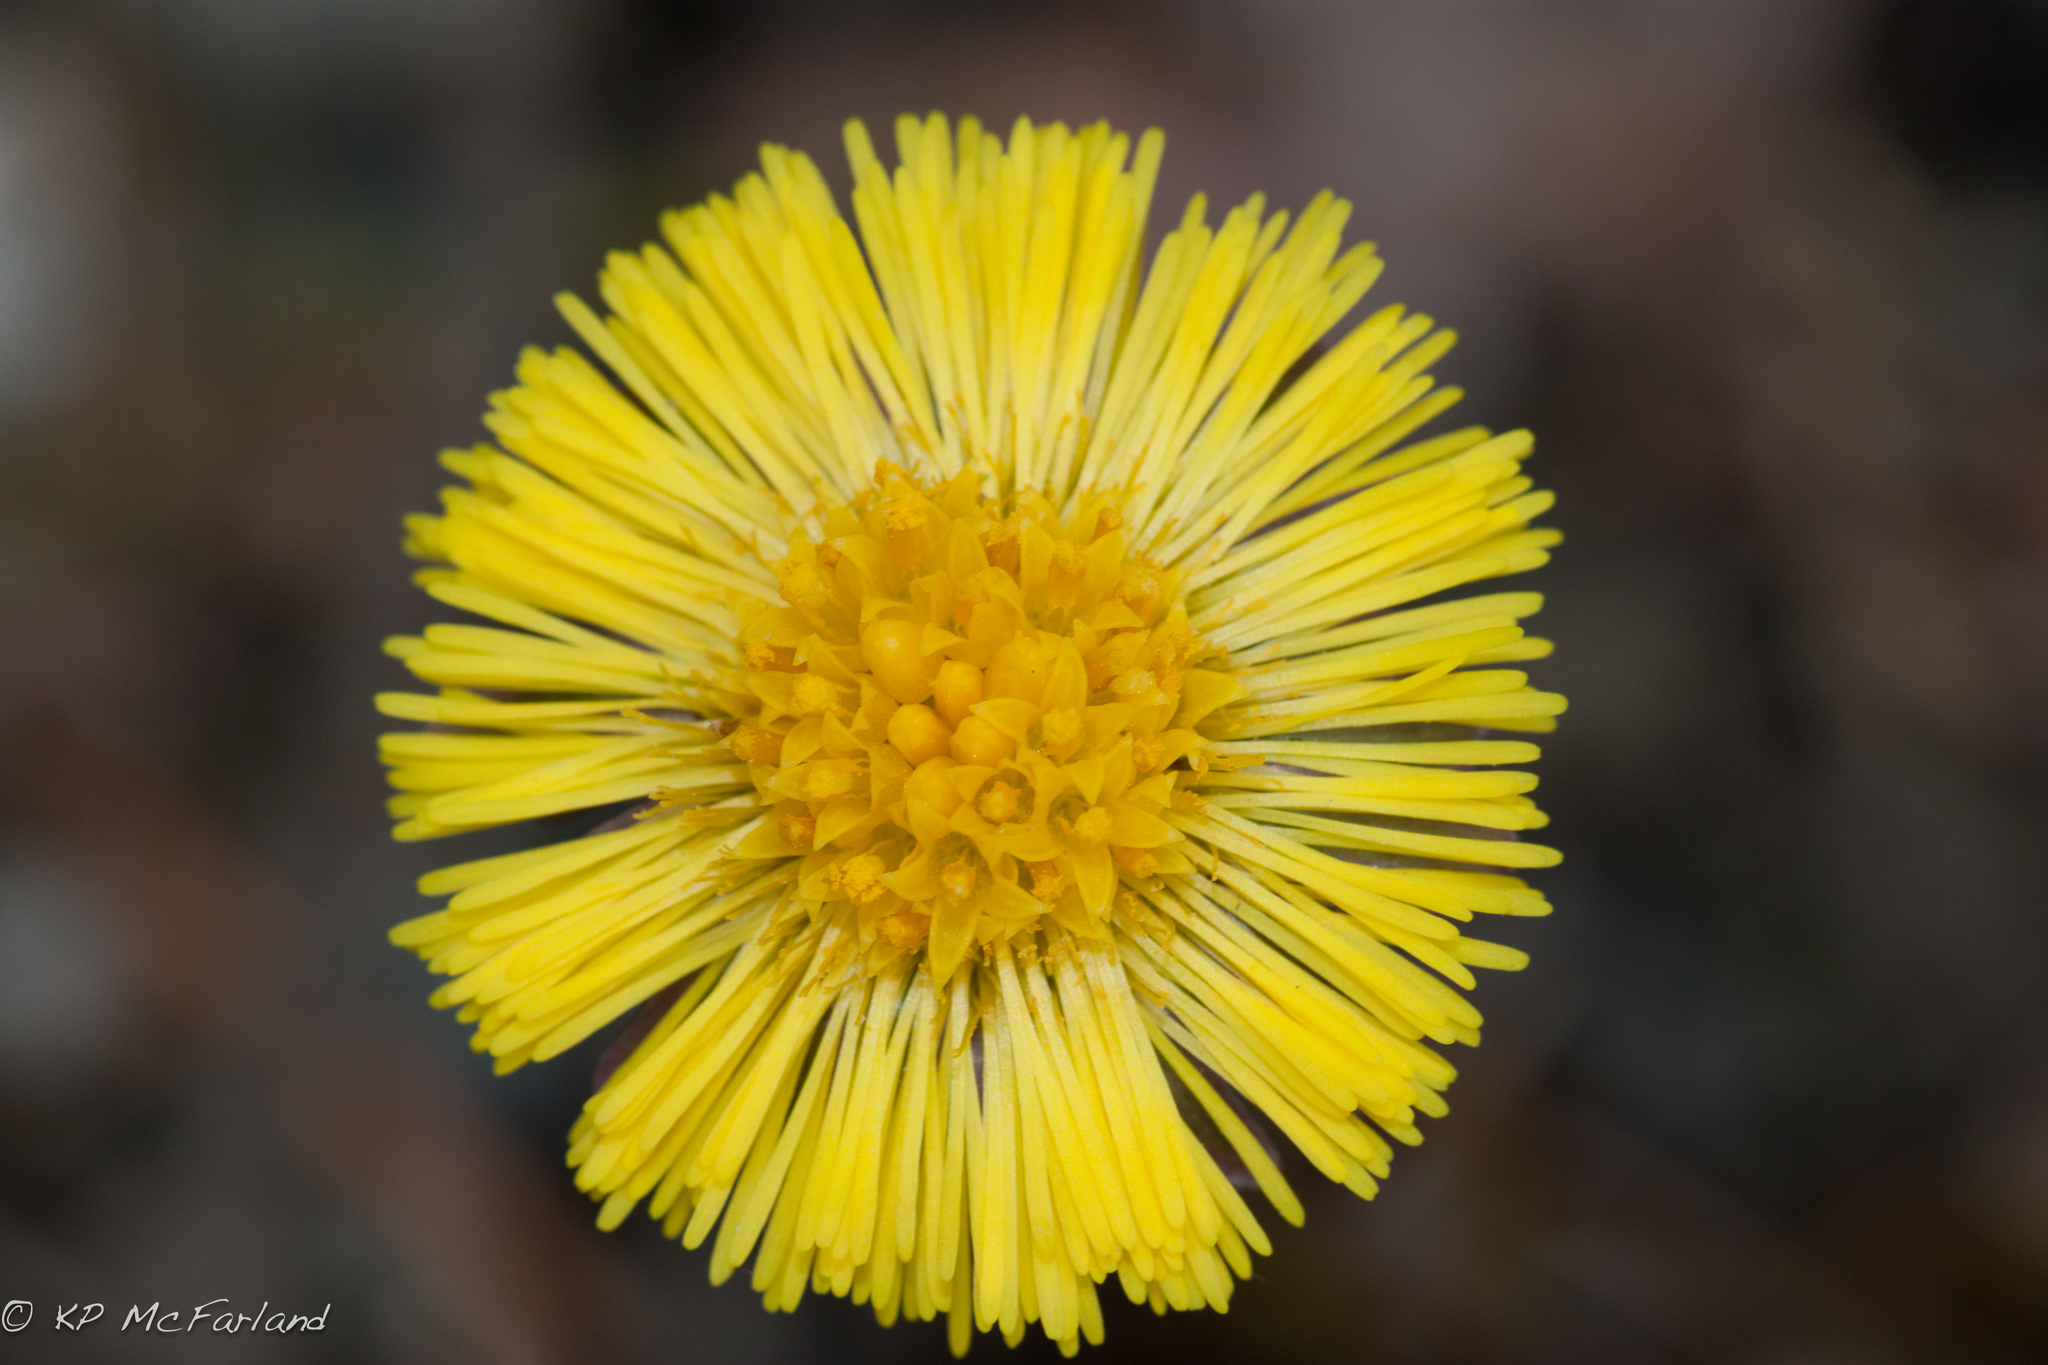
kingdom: Plantae
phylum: Tracheophyta
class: Magnoliopsida
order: Asterales
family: Asteraceae
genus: Tussilago
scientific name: Tussilago farfara
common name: Coltsfoot
